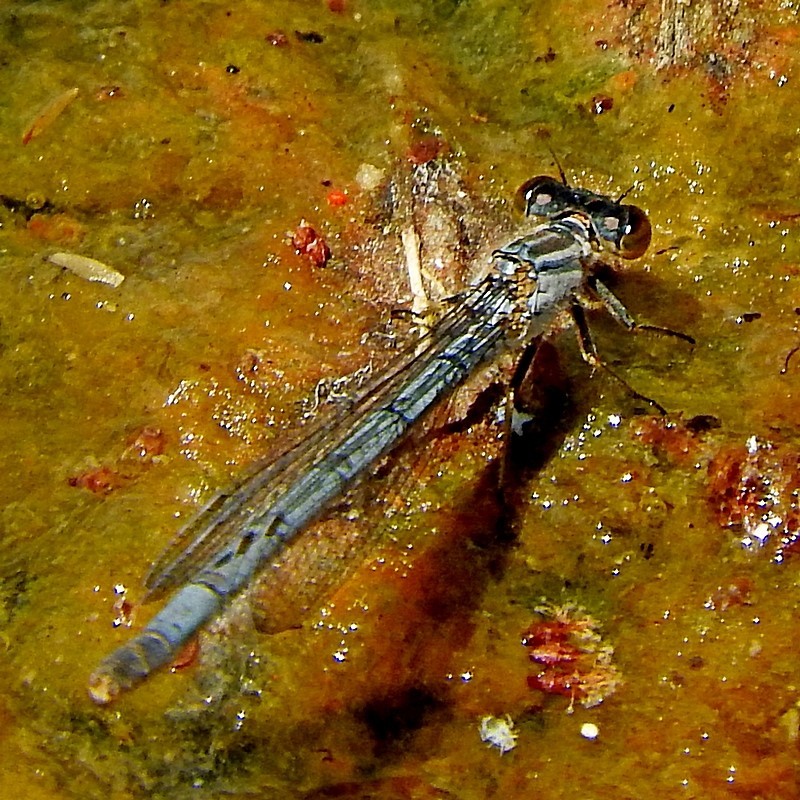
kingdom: Animalia
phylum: Arthropoda
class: Insecta
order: Odonata
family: Coenagrionidae
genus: Ischnura
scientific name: Ischnura heterosticta
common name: Common bluetail
